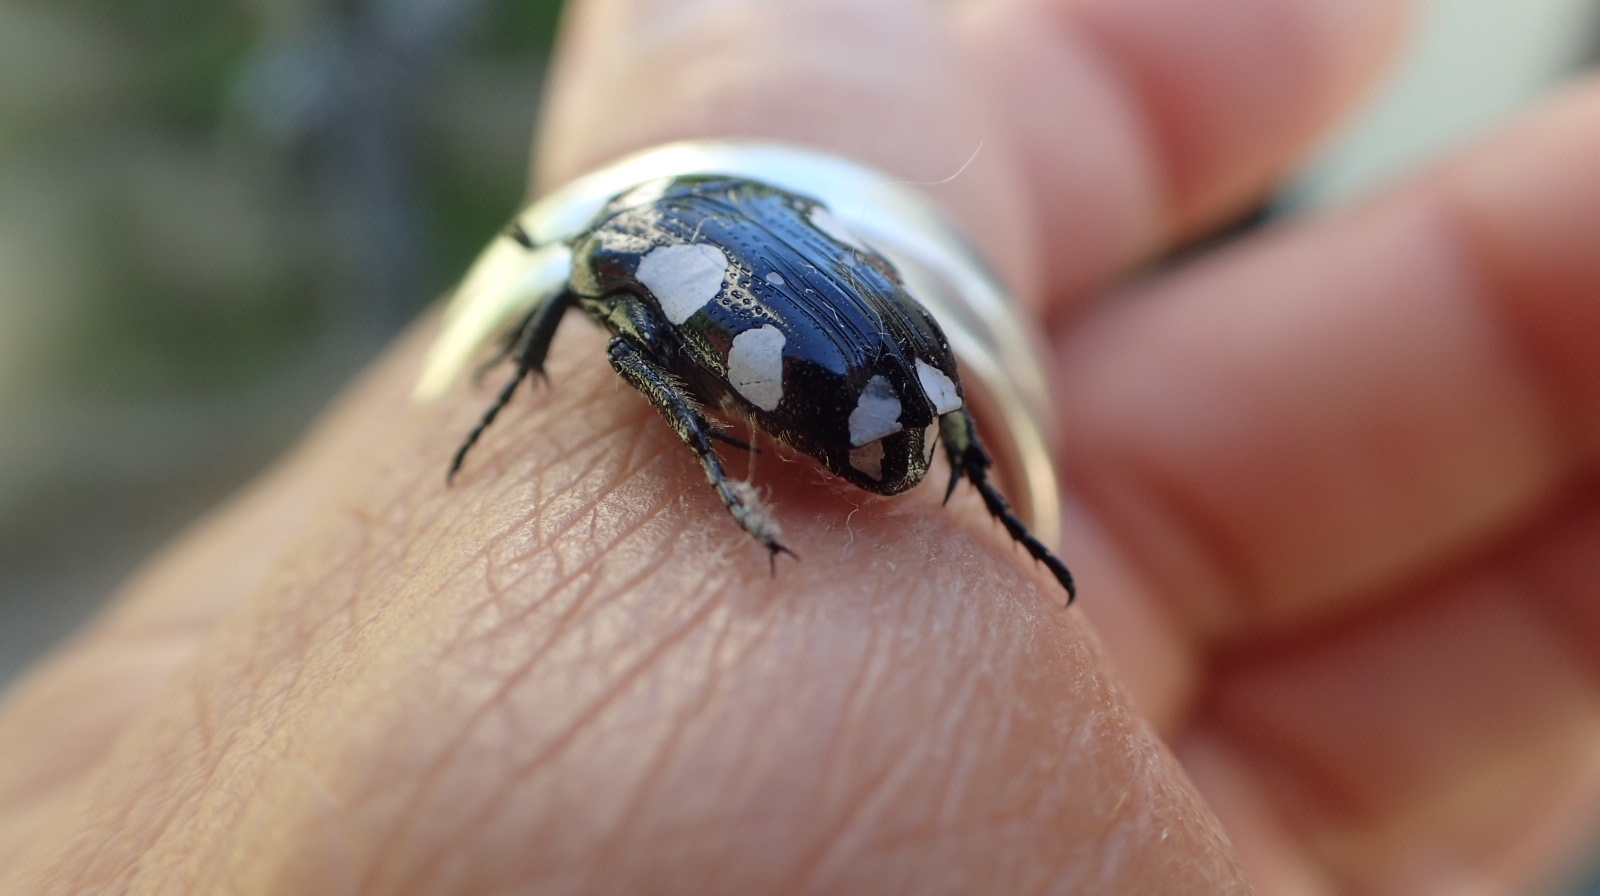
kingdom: Animalia
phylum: Arthropoda
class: Insecta
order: Coleoptera
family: Scarabaeidae
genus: Mausoleopsis
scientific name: Mausoleopsis amabilis
